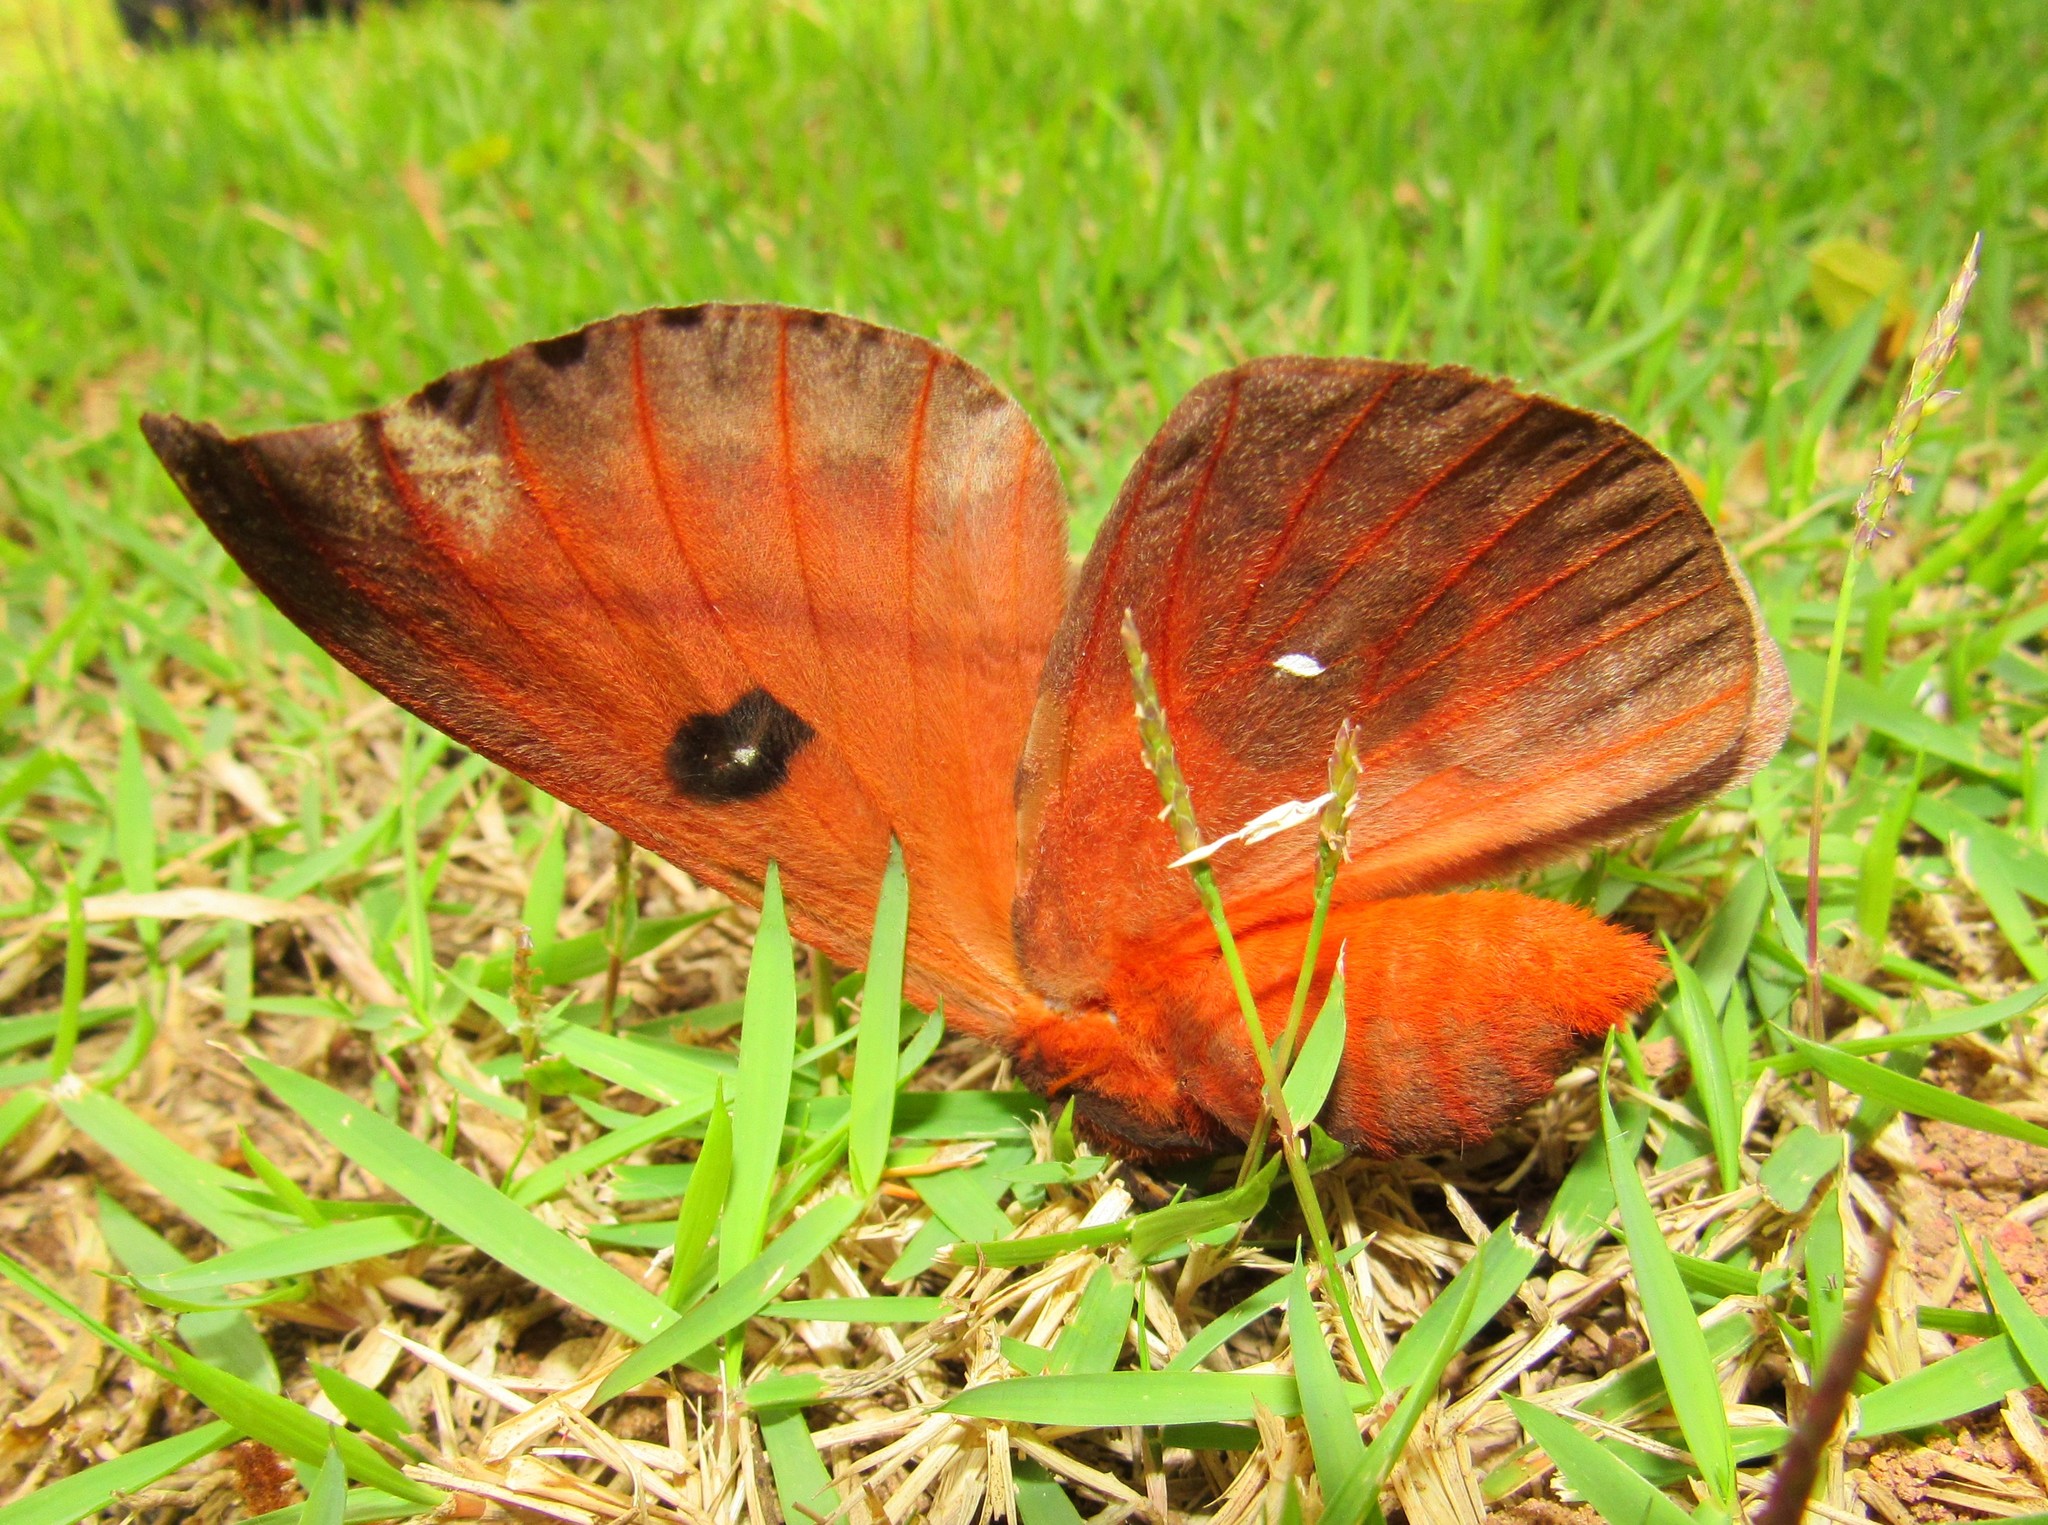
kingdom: Animalia
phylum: Arthropoda
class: Insecta
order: Lepidoptera
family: Saturniidae
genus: Automeris
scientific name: Automeris illustris
